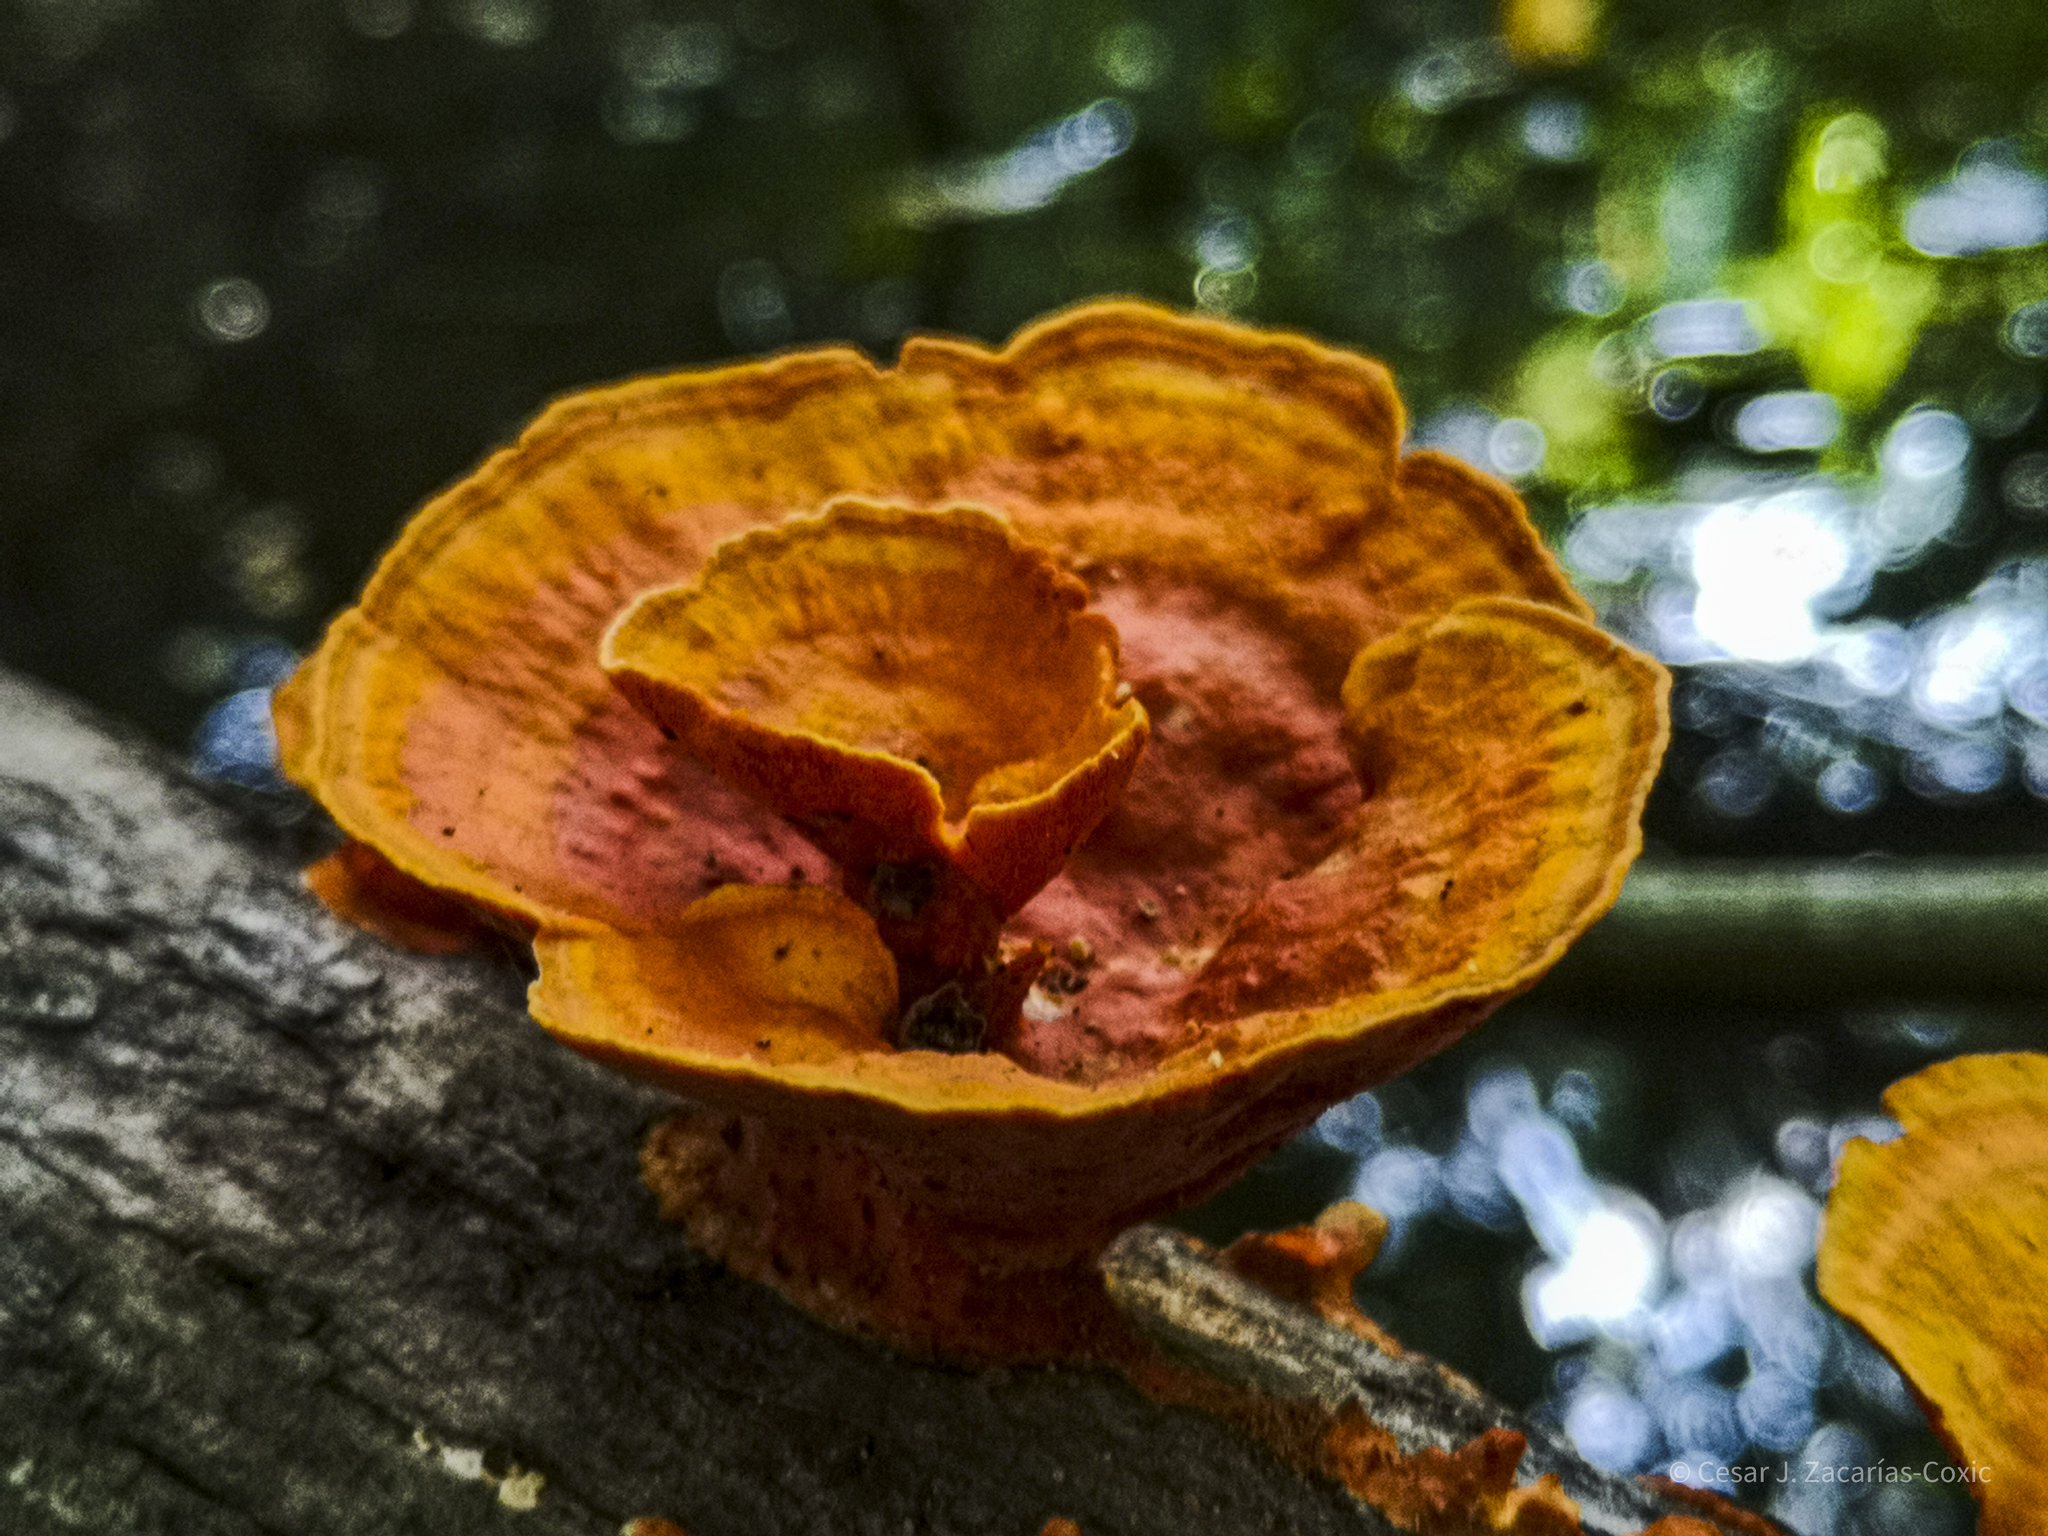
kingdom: Fungi
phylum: Basidiomycota
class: Agaricomycetes
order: Polyporales
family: Polyporaceae
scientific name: Polyporaceae
